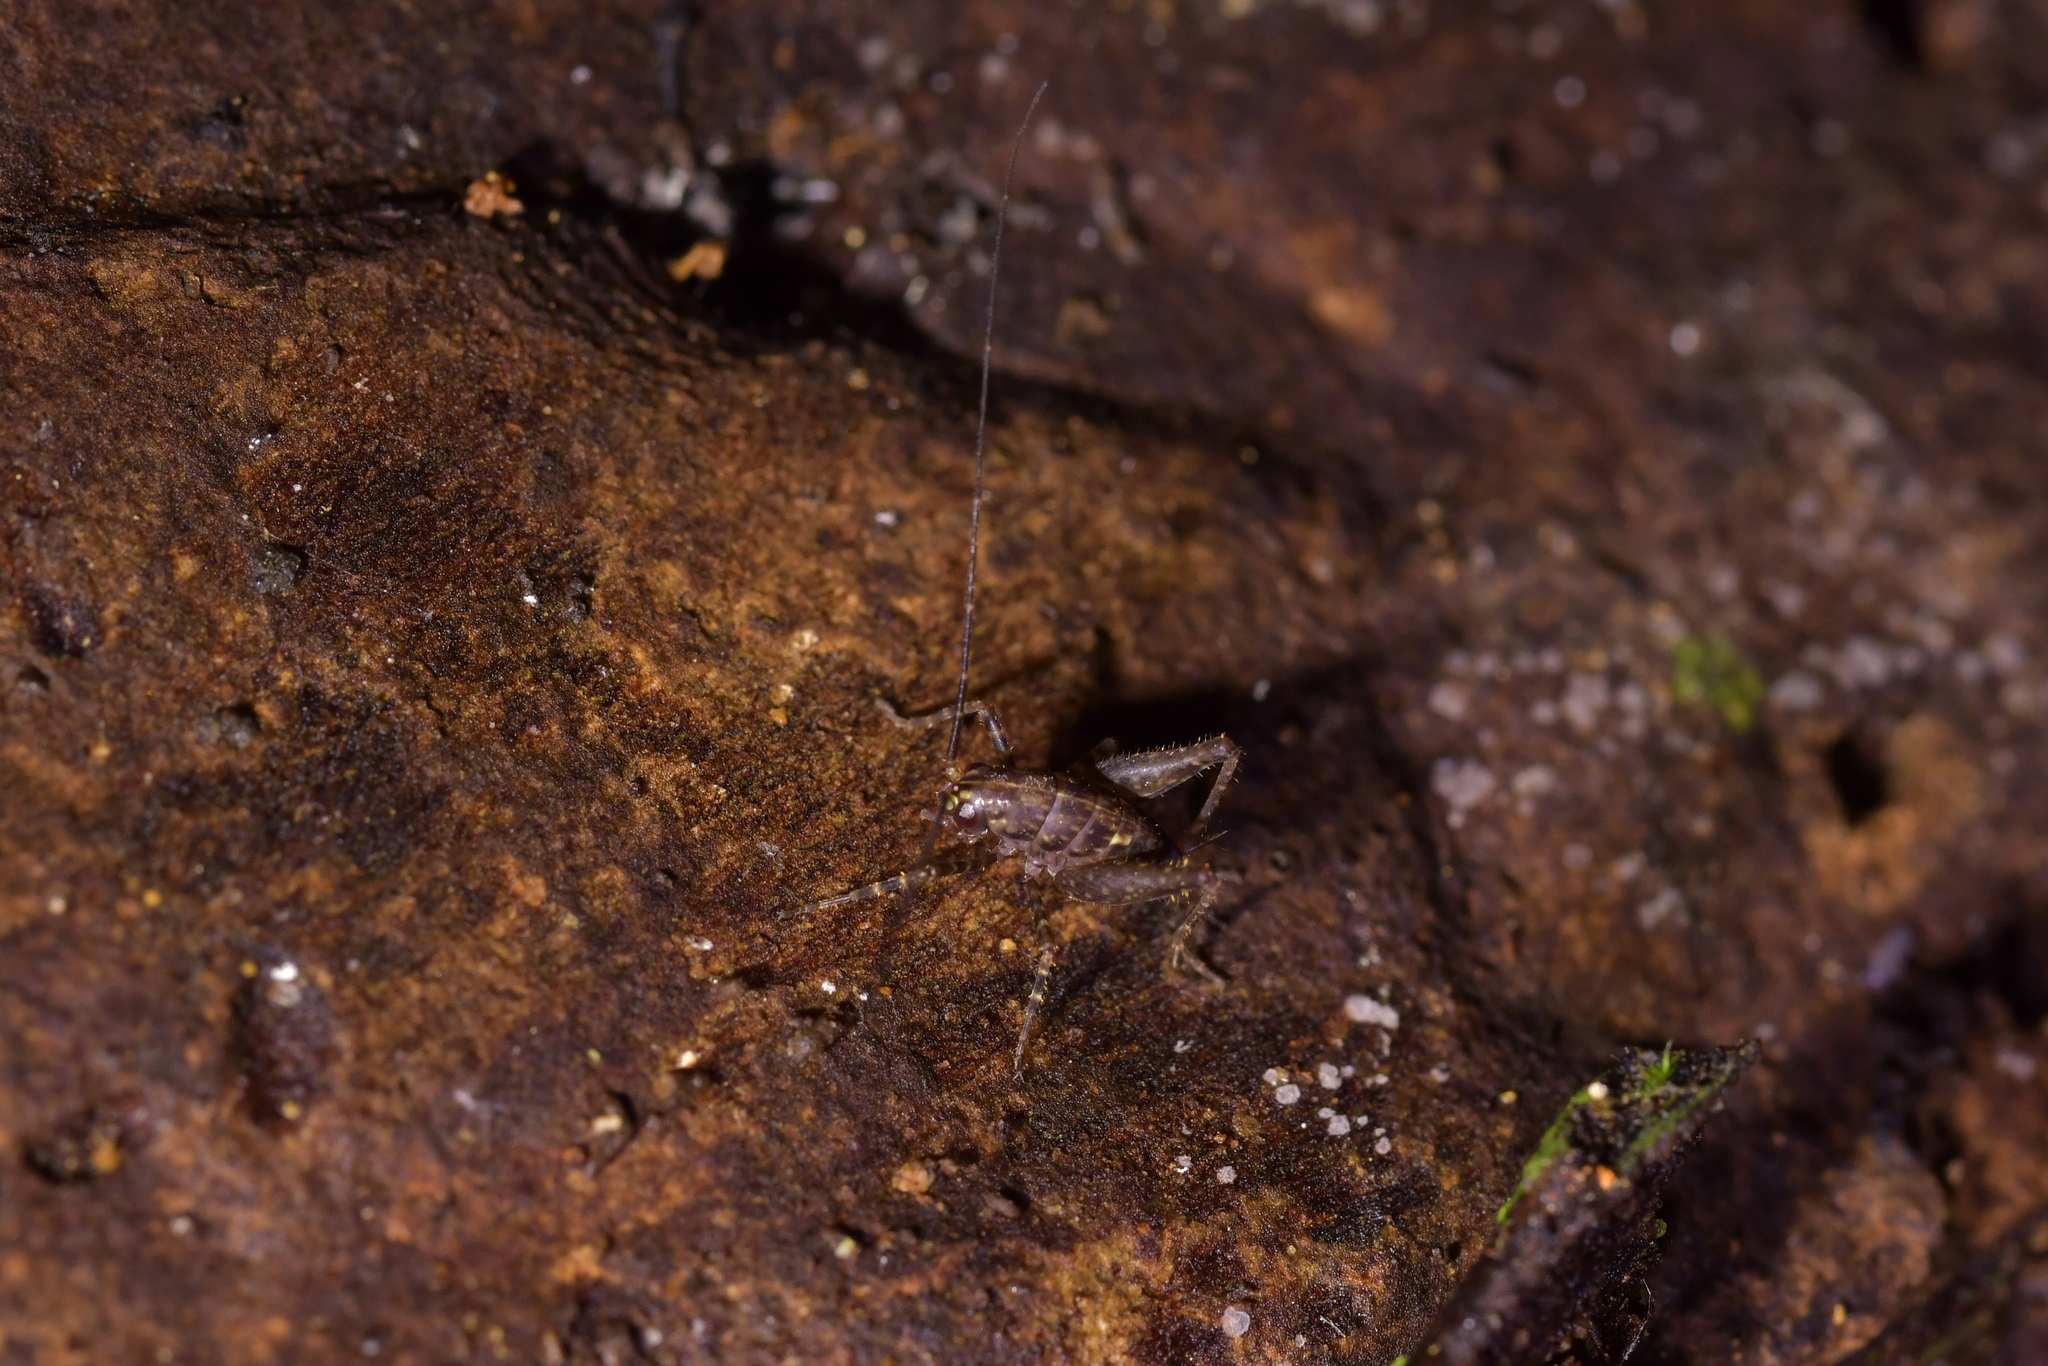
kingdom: Animalia
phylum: Arthropoda
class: Insecta
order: Orthoptera
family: Rhaphidophoridae
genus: Miotopus
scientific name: Miotopus diversus
